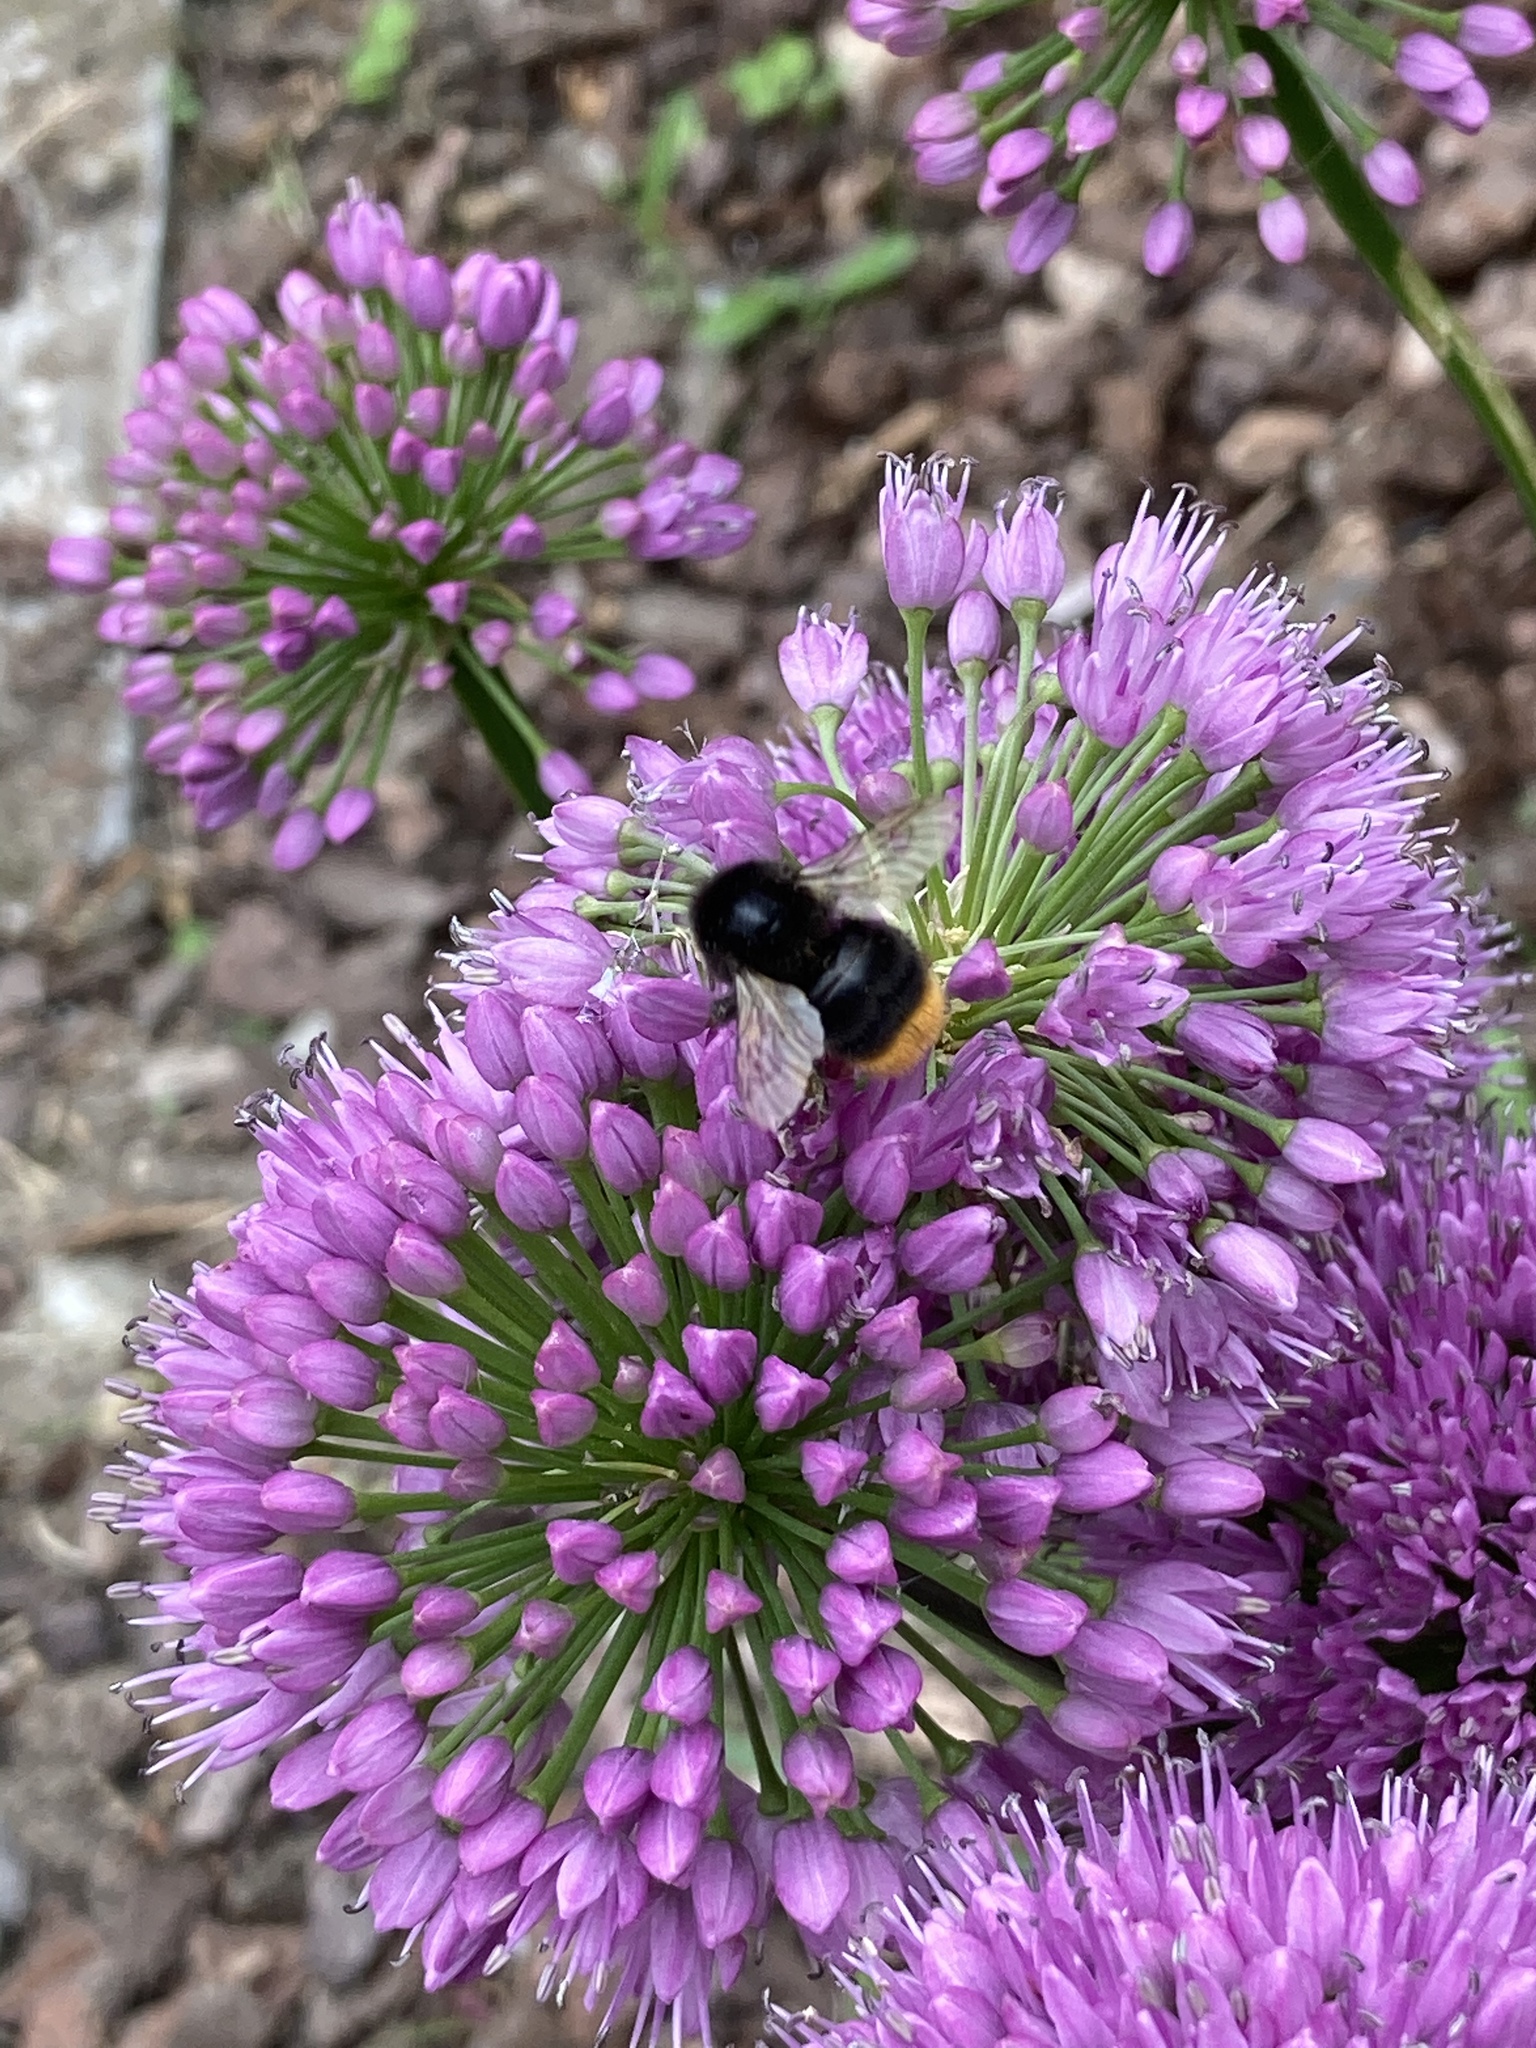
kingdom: Animalia
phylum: Arthropoda
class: Insecta
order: Hymenoptera
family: Apidae
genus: Bombus
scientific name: Bombus lapidarius
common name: Large red-tailed humble-bee
